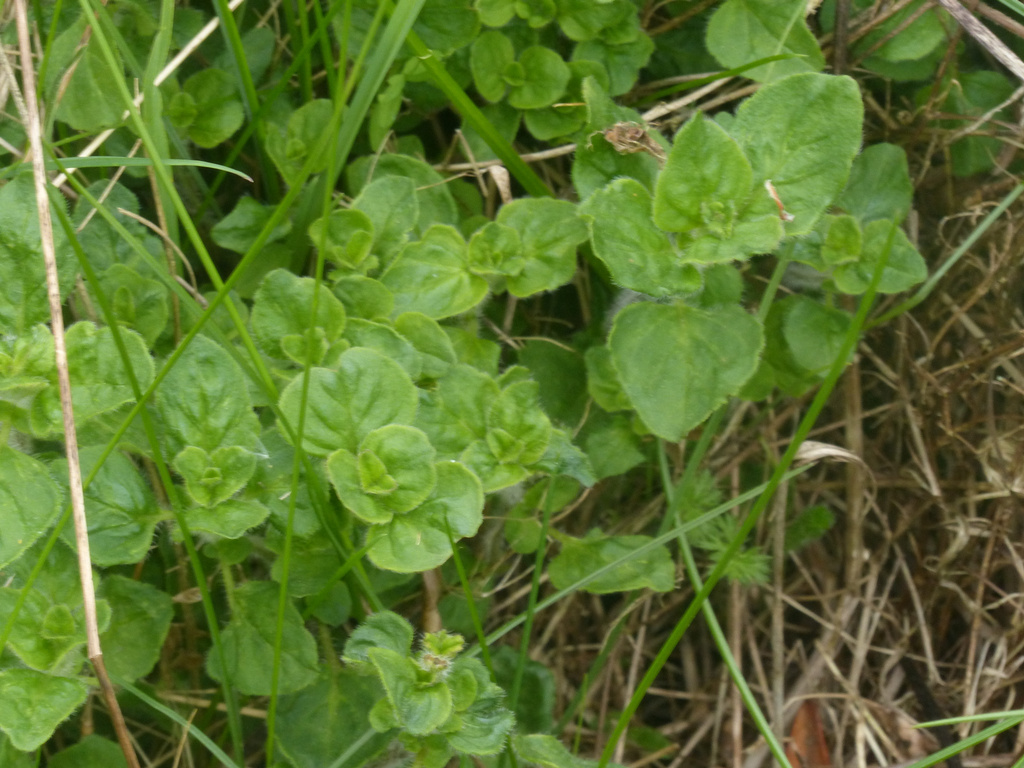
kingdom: Plantae
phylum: Tracheophyta
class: Magnoliopsida
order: Lamiales
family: Lamiaceae
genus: Origanum
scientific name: Origanum vulgare
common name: Wild marjoram
